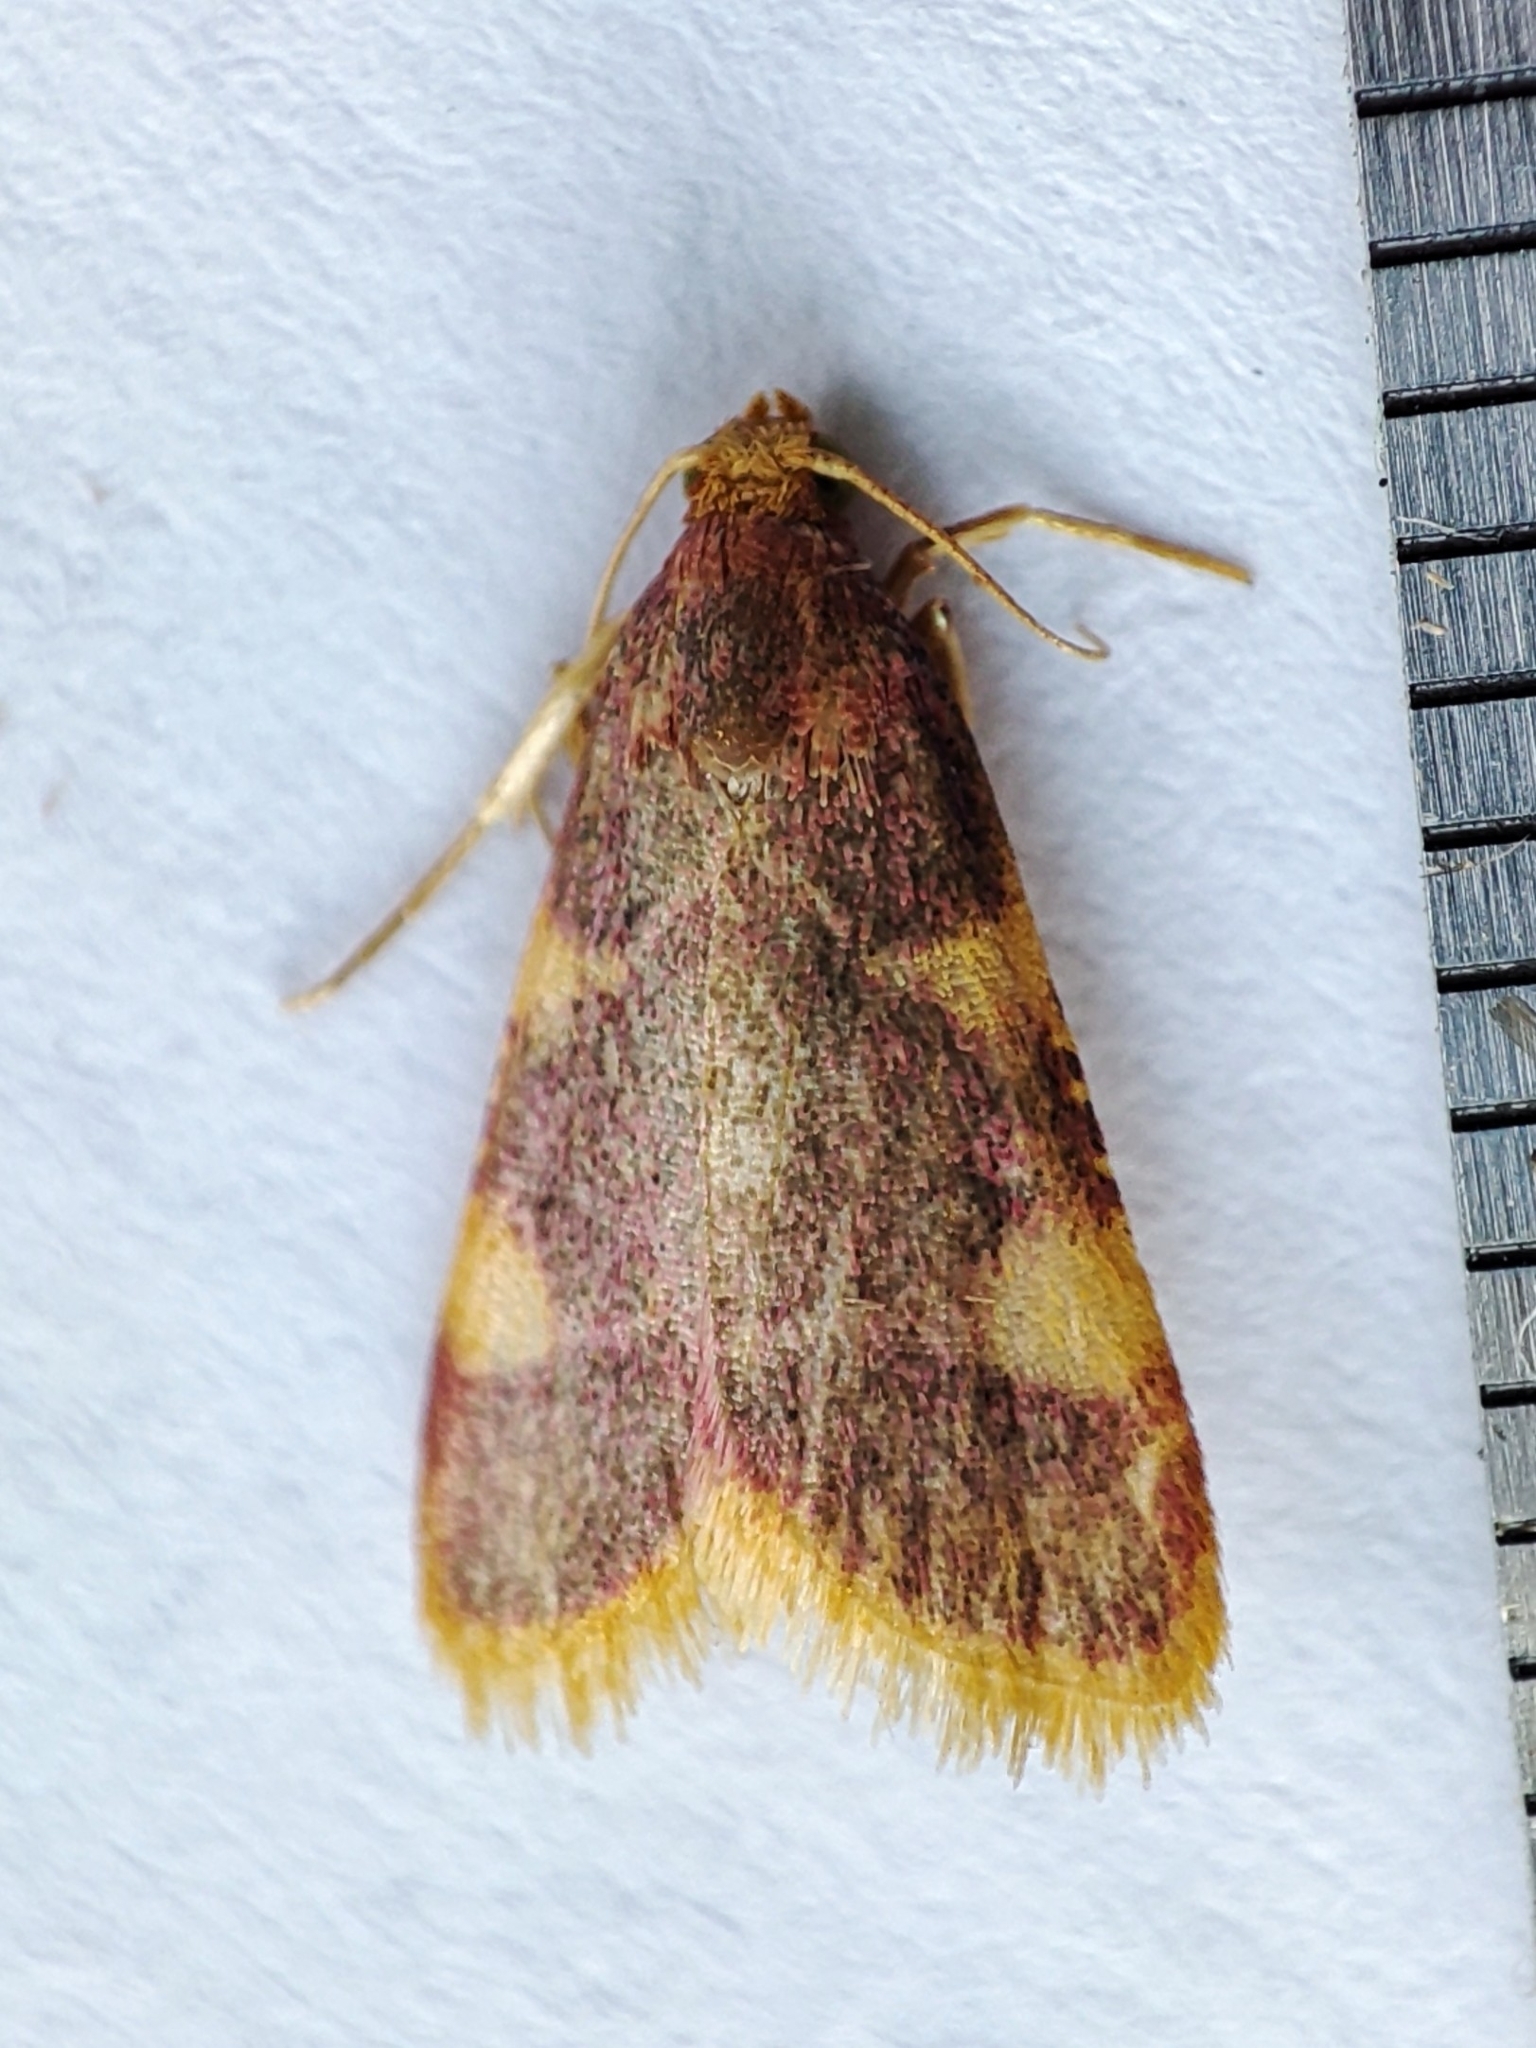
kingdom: Animalia
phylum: Arthropoda
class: Insecta
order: Lepidoptera
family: Pyralidae
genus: Hypsopygia
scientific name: Hypsopygia costalis
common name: Gold triangle
